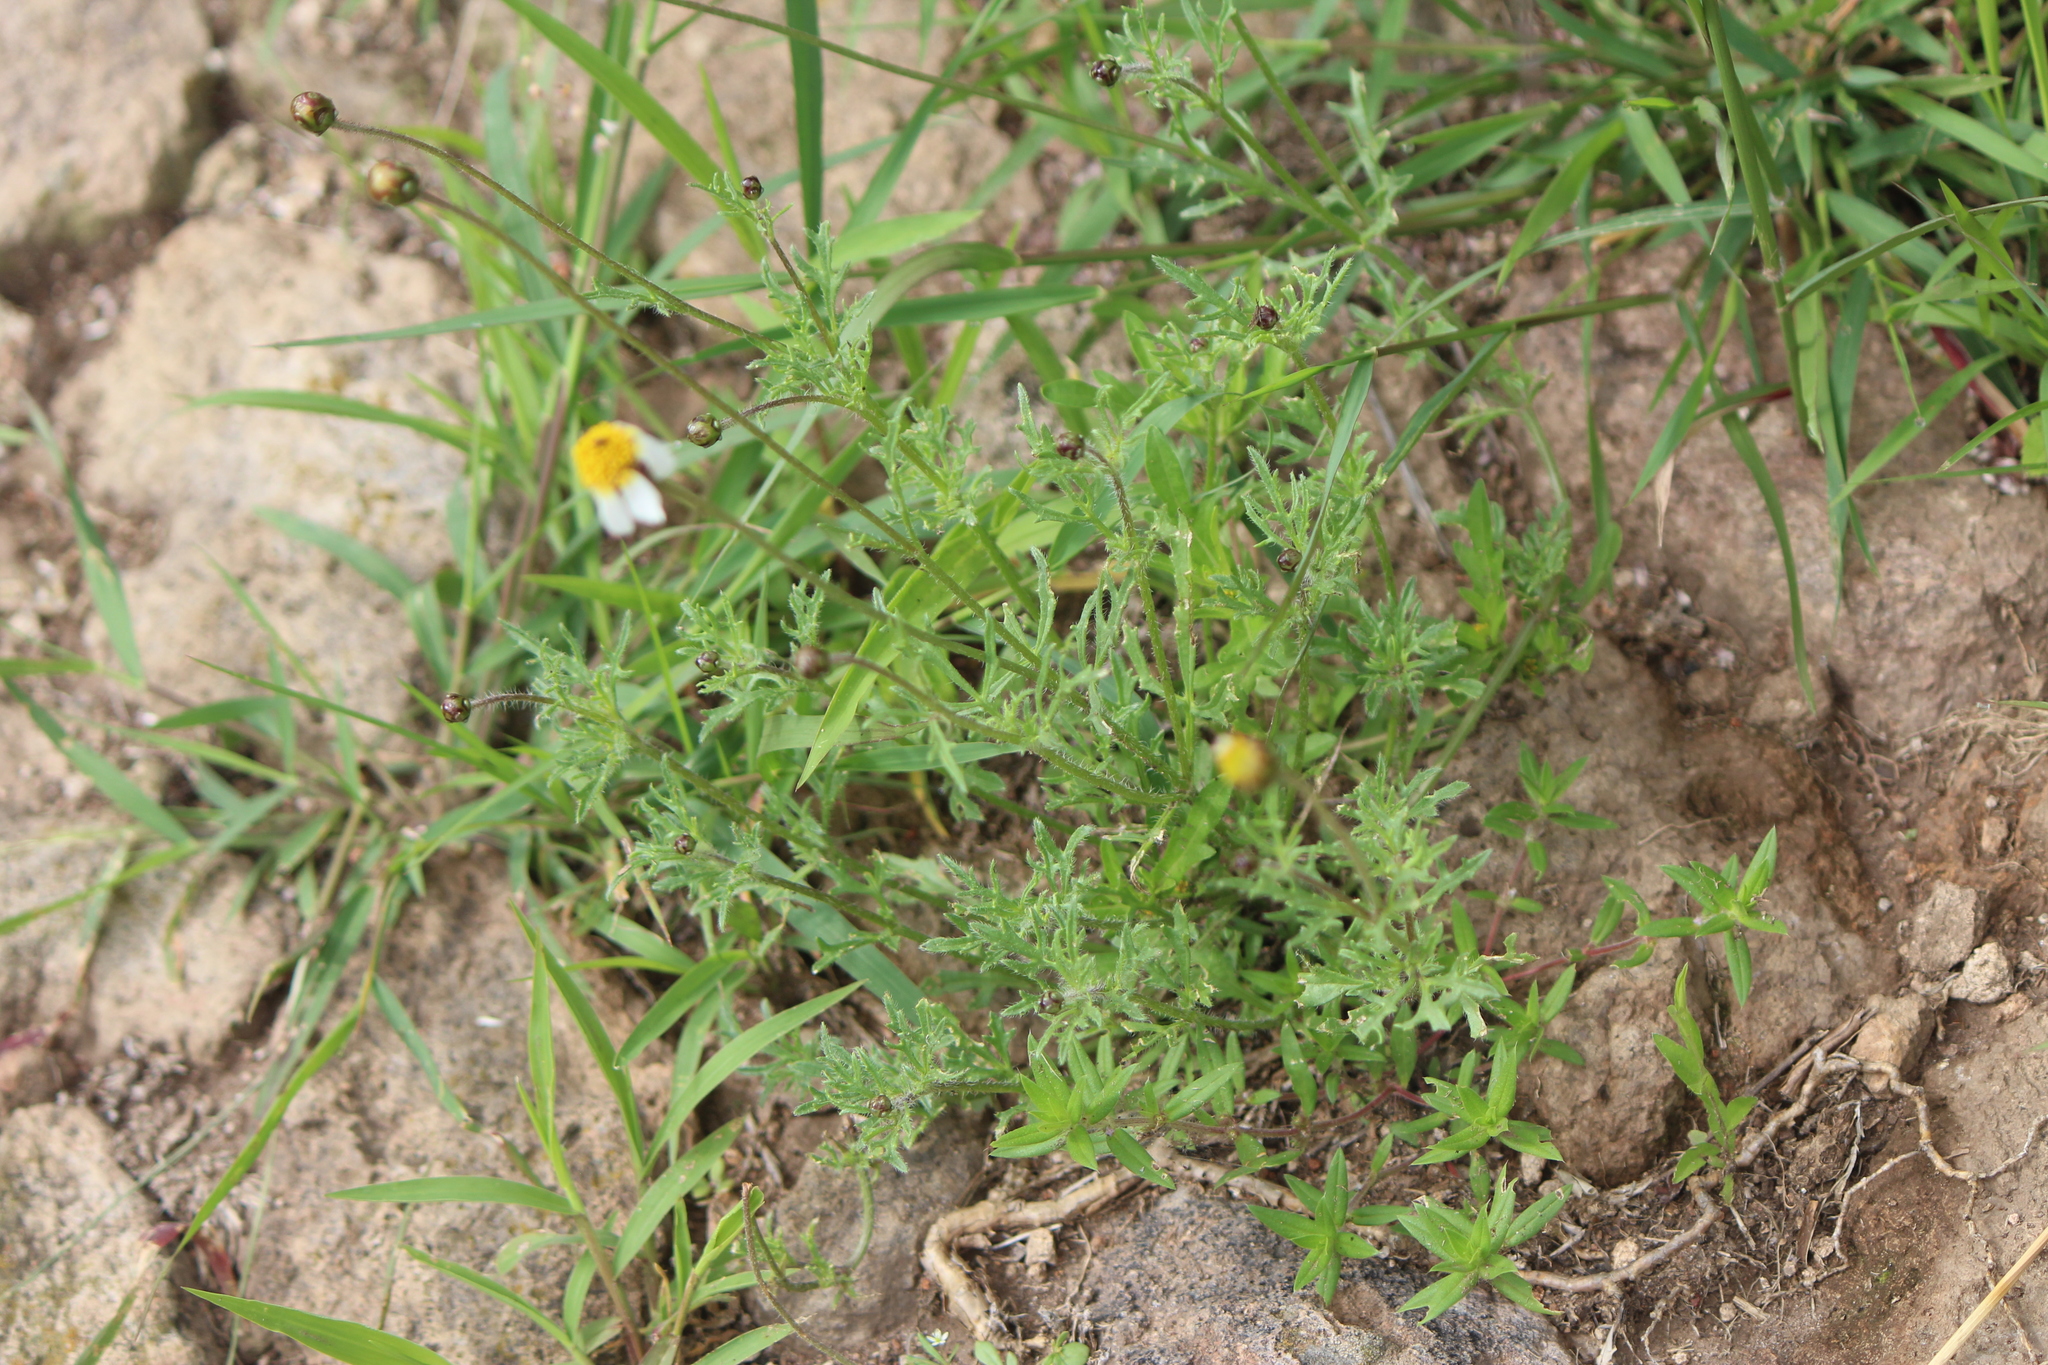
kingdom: Plantae
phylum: Tracheophyta
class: Magnoliopsida
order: Asterales
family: Asteraceae
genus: Tridax
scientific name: Tridax rosea
